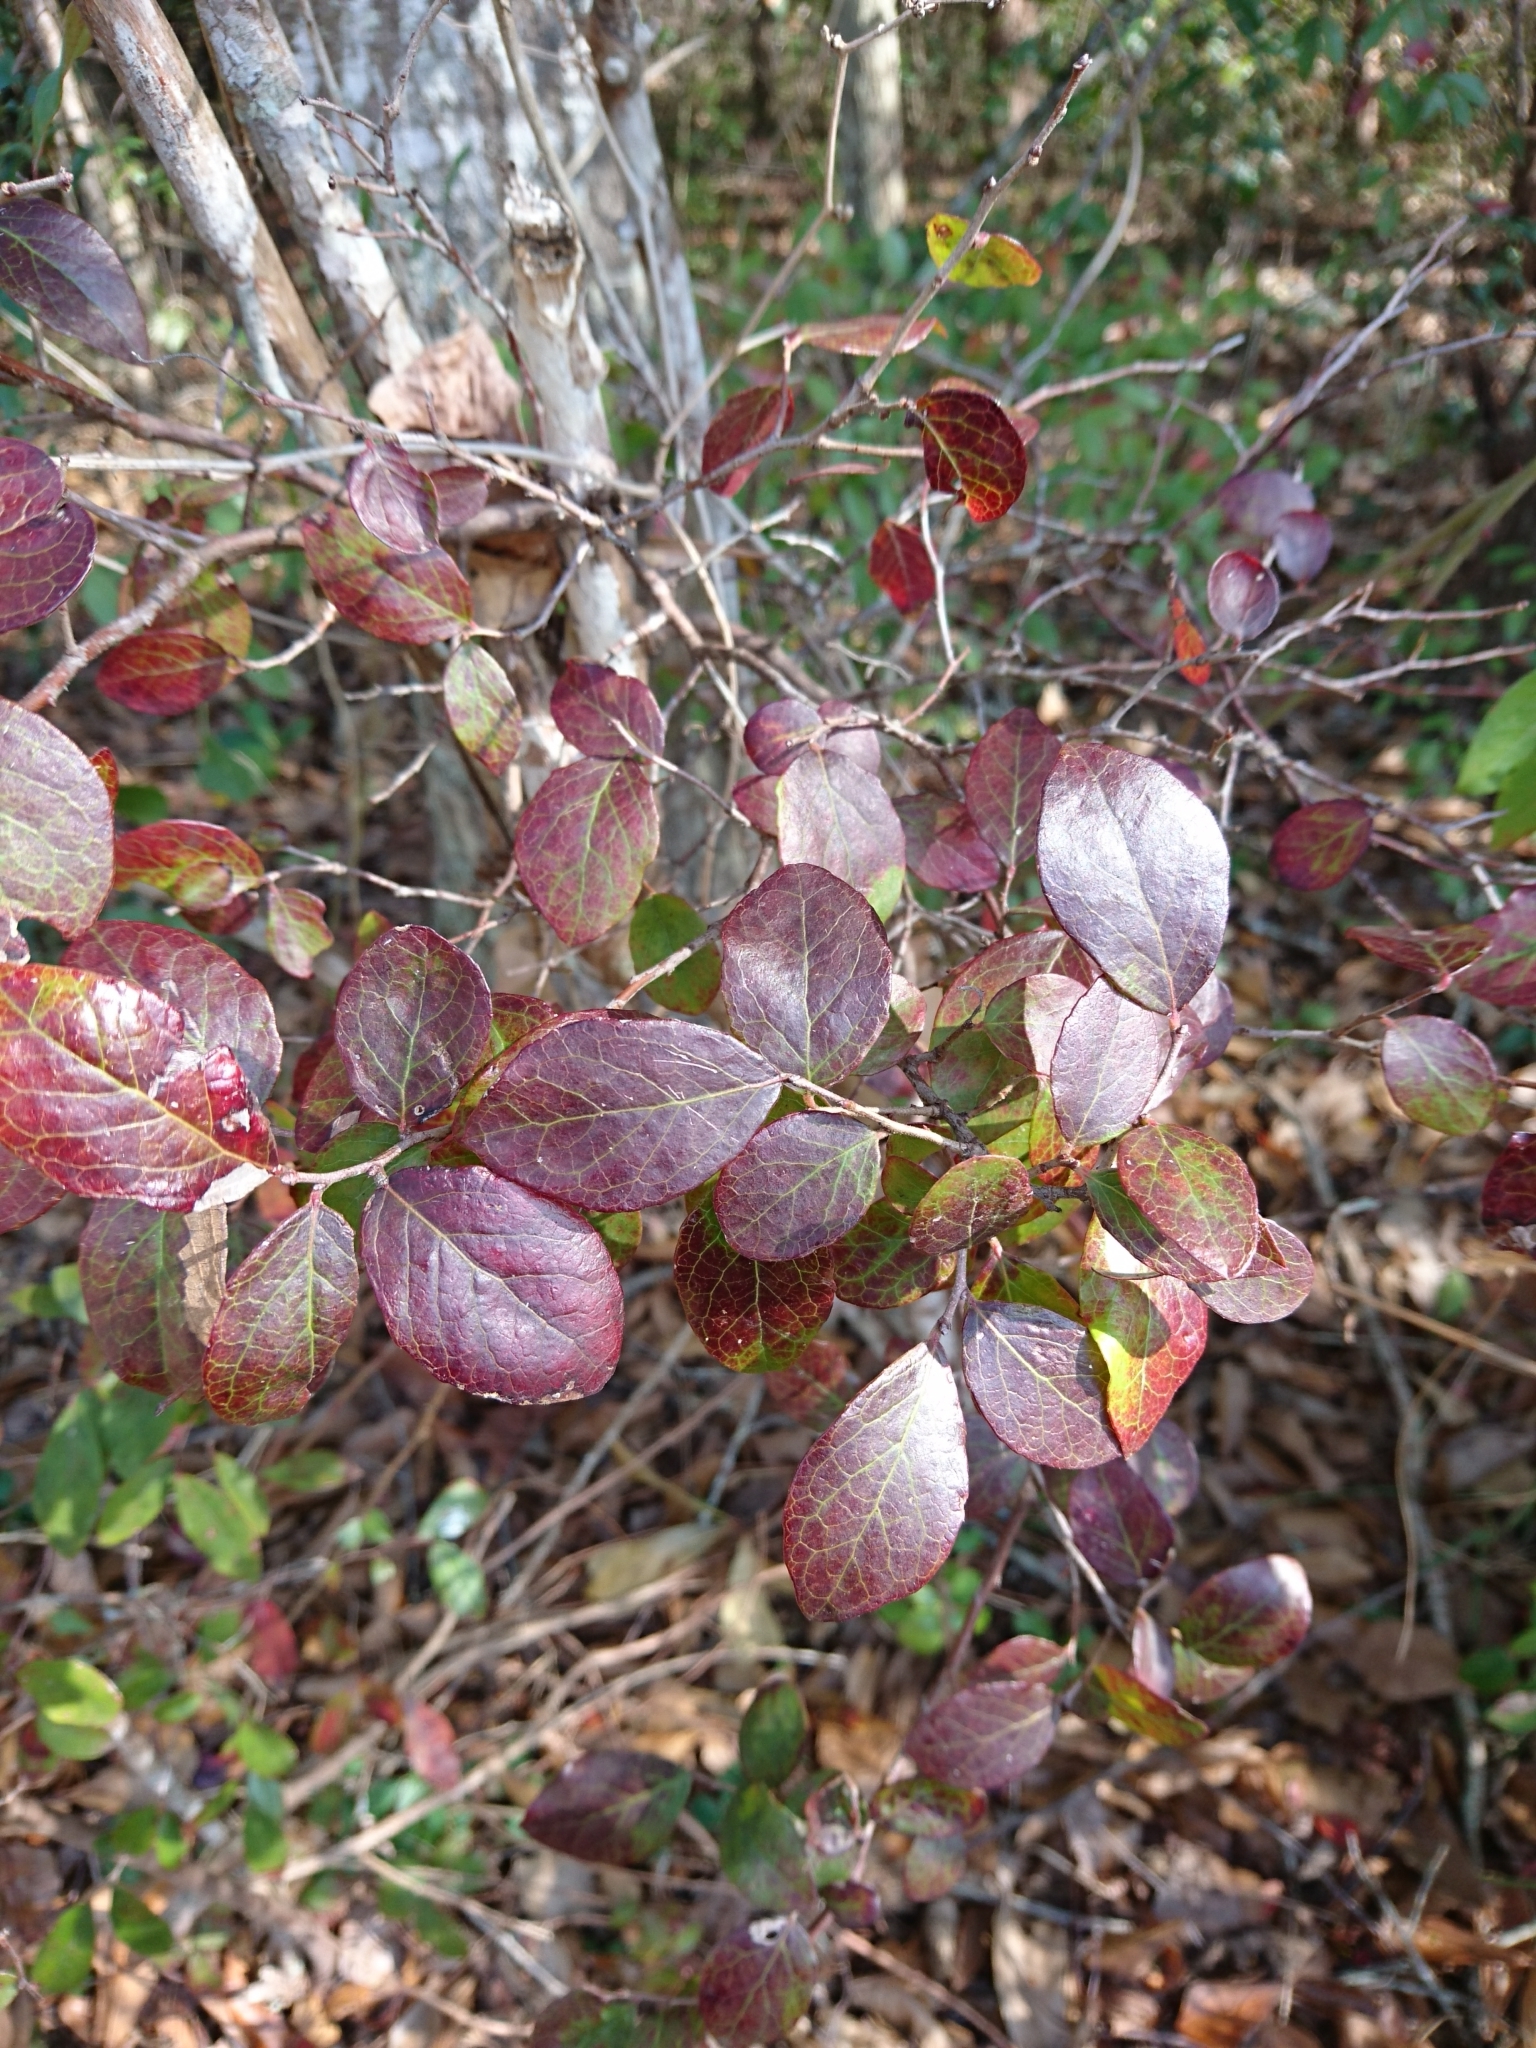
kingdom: Plantae
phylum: Tracheophyta
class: Magnoliopsida
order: Ericales
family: Ericaceae
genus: Vaccinium
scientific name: Vaccinium arboreum
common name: Farkleberry
